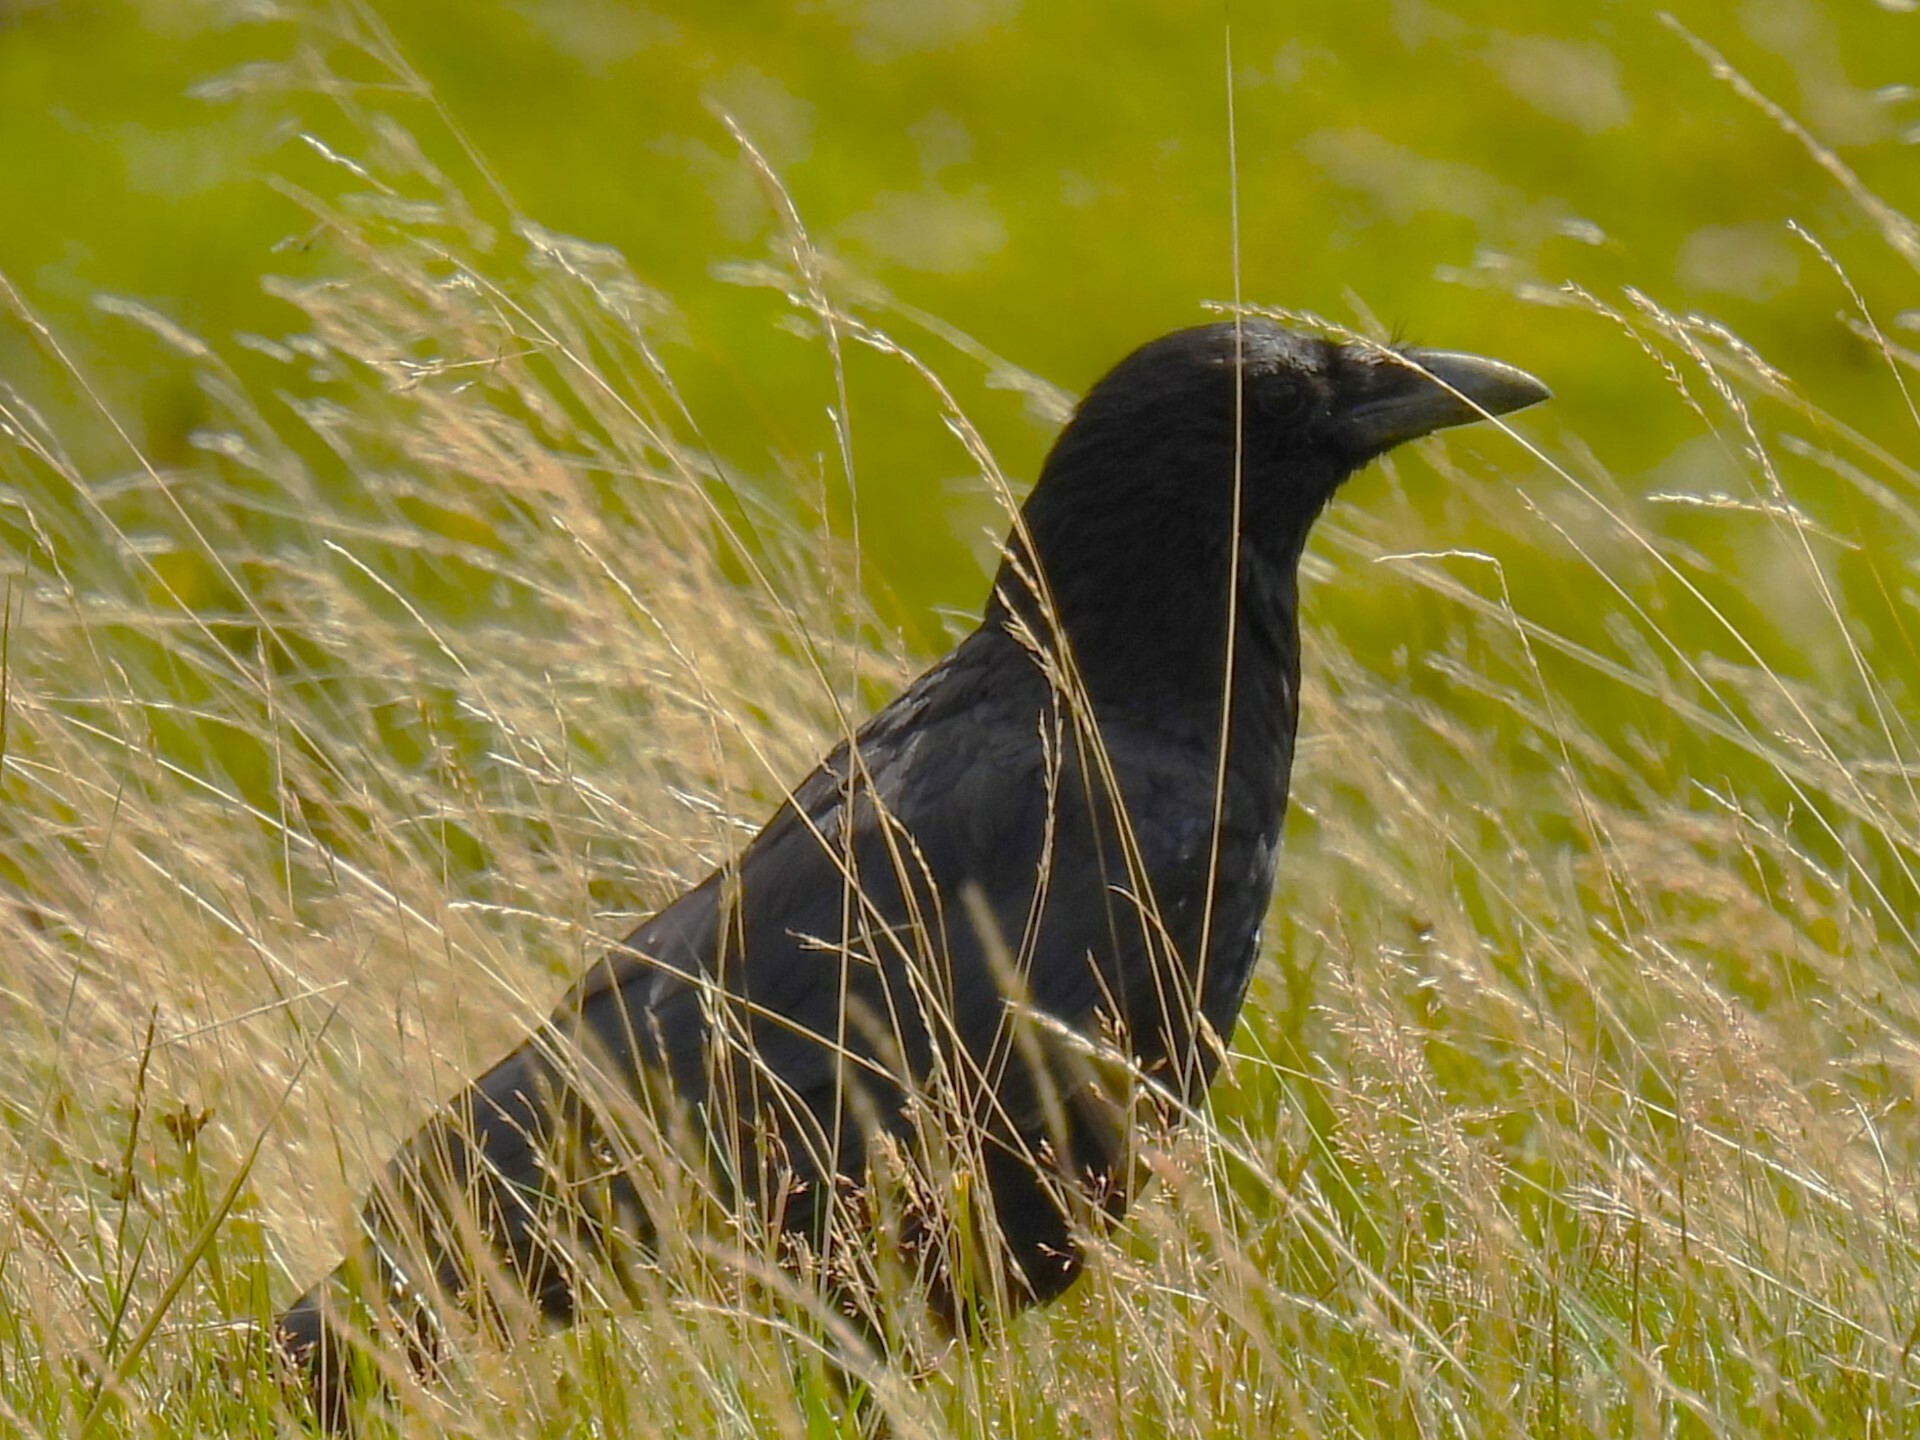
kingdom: Animalia
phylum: Chordata
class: Aves
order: Passeriformes
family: Corvidae
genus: Corvus
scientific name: Corvus corone
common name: Carrion crow
